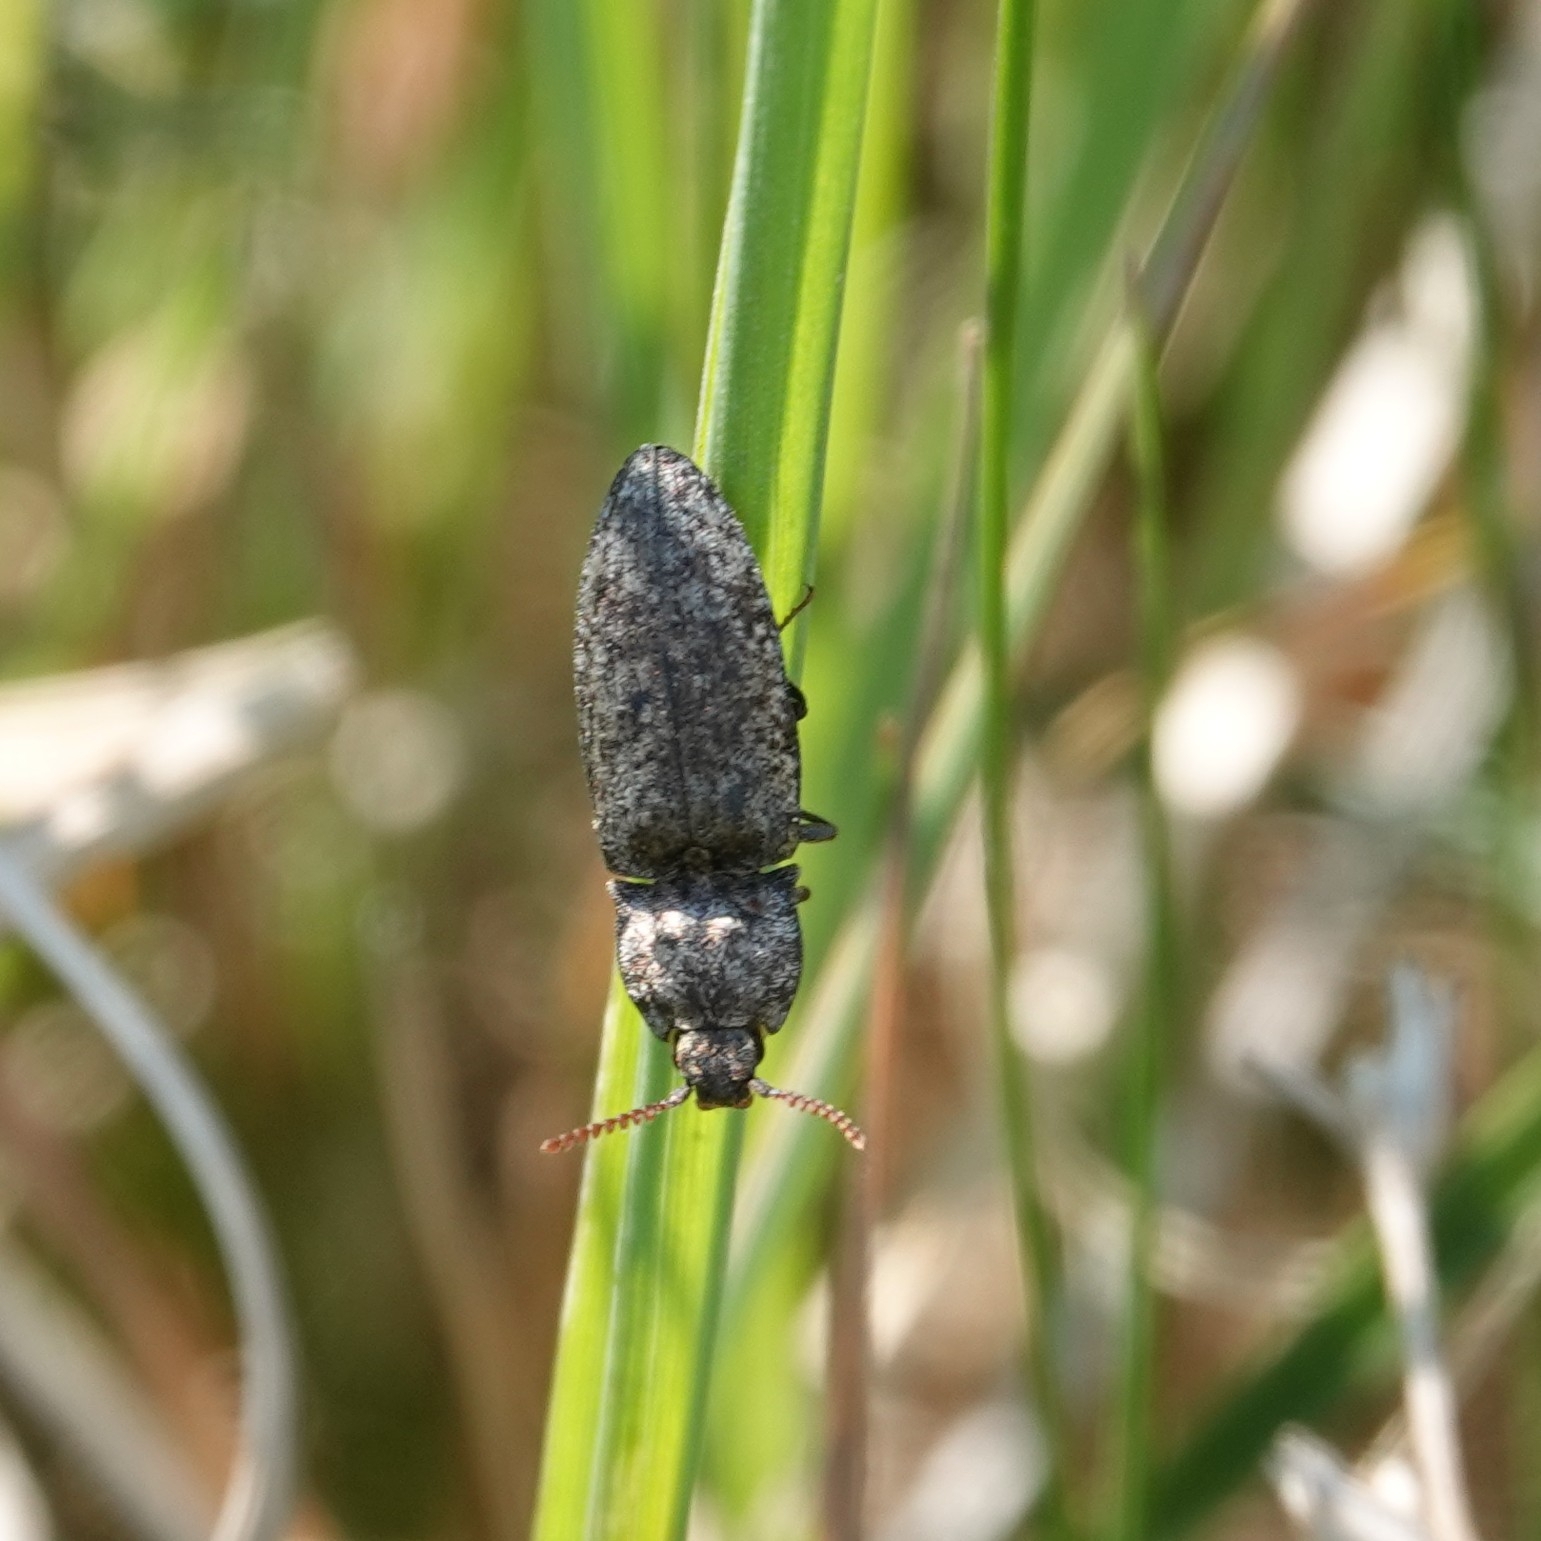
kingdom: Animalia
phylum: Arthropoda
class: Insecta
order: Coleoptera
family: Elateridae
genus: Agrypnus
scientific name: Agrypnus murinus
